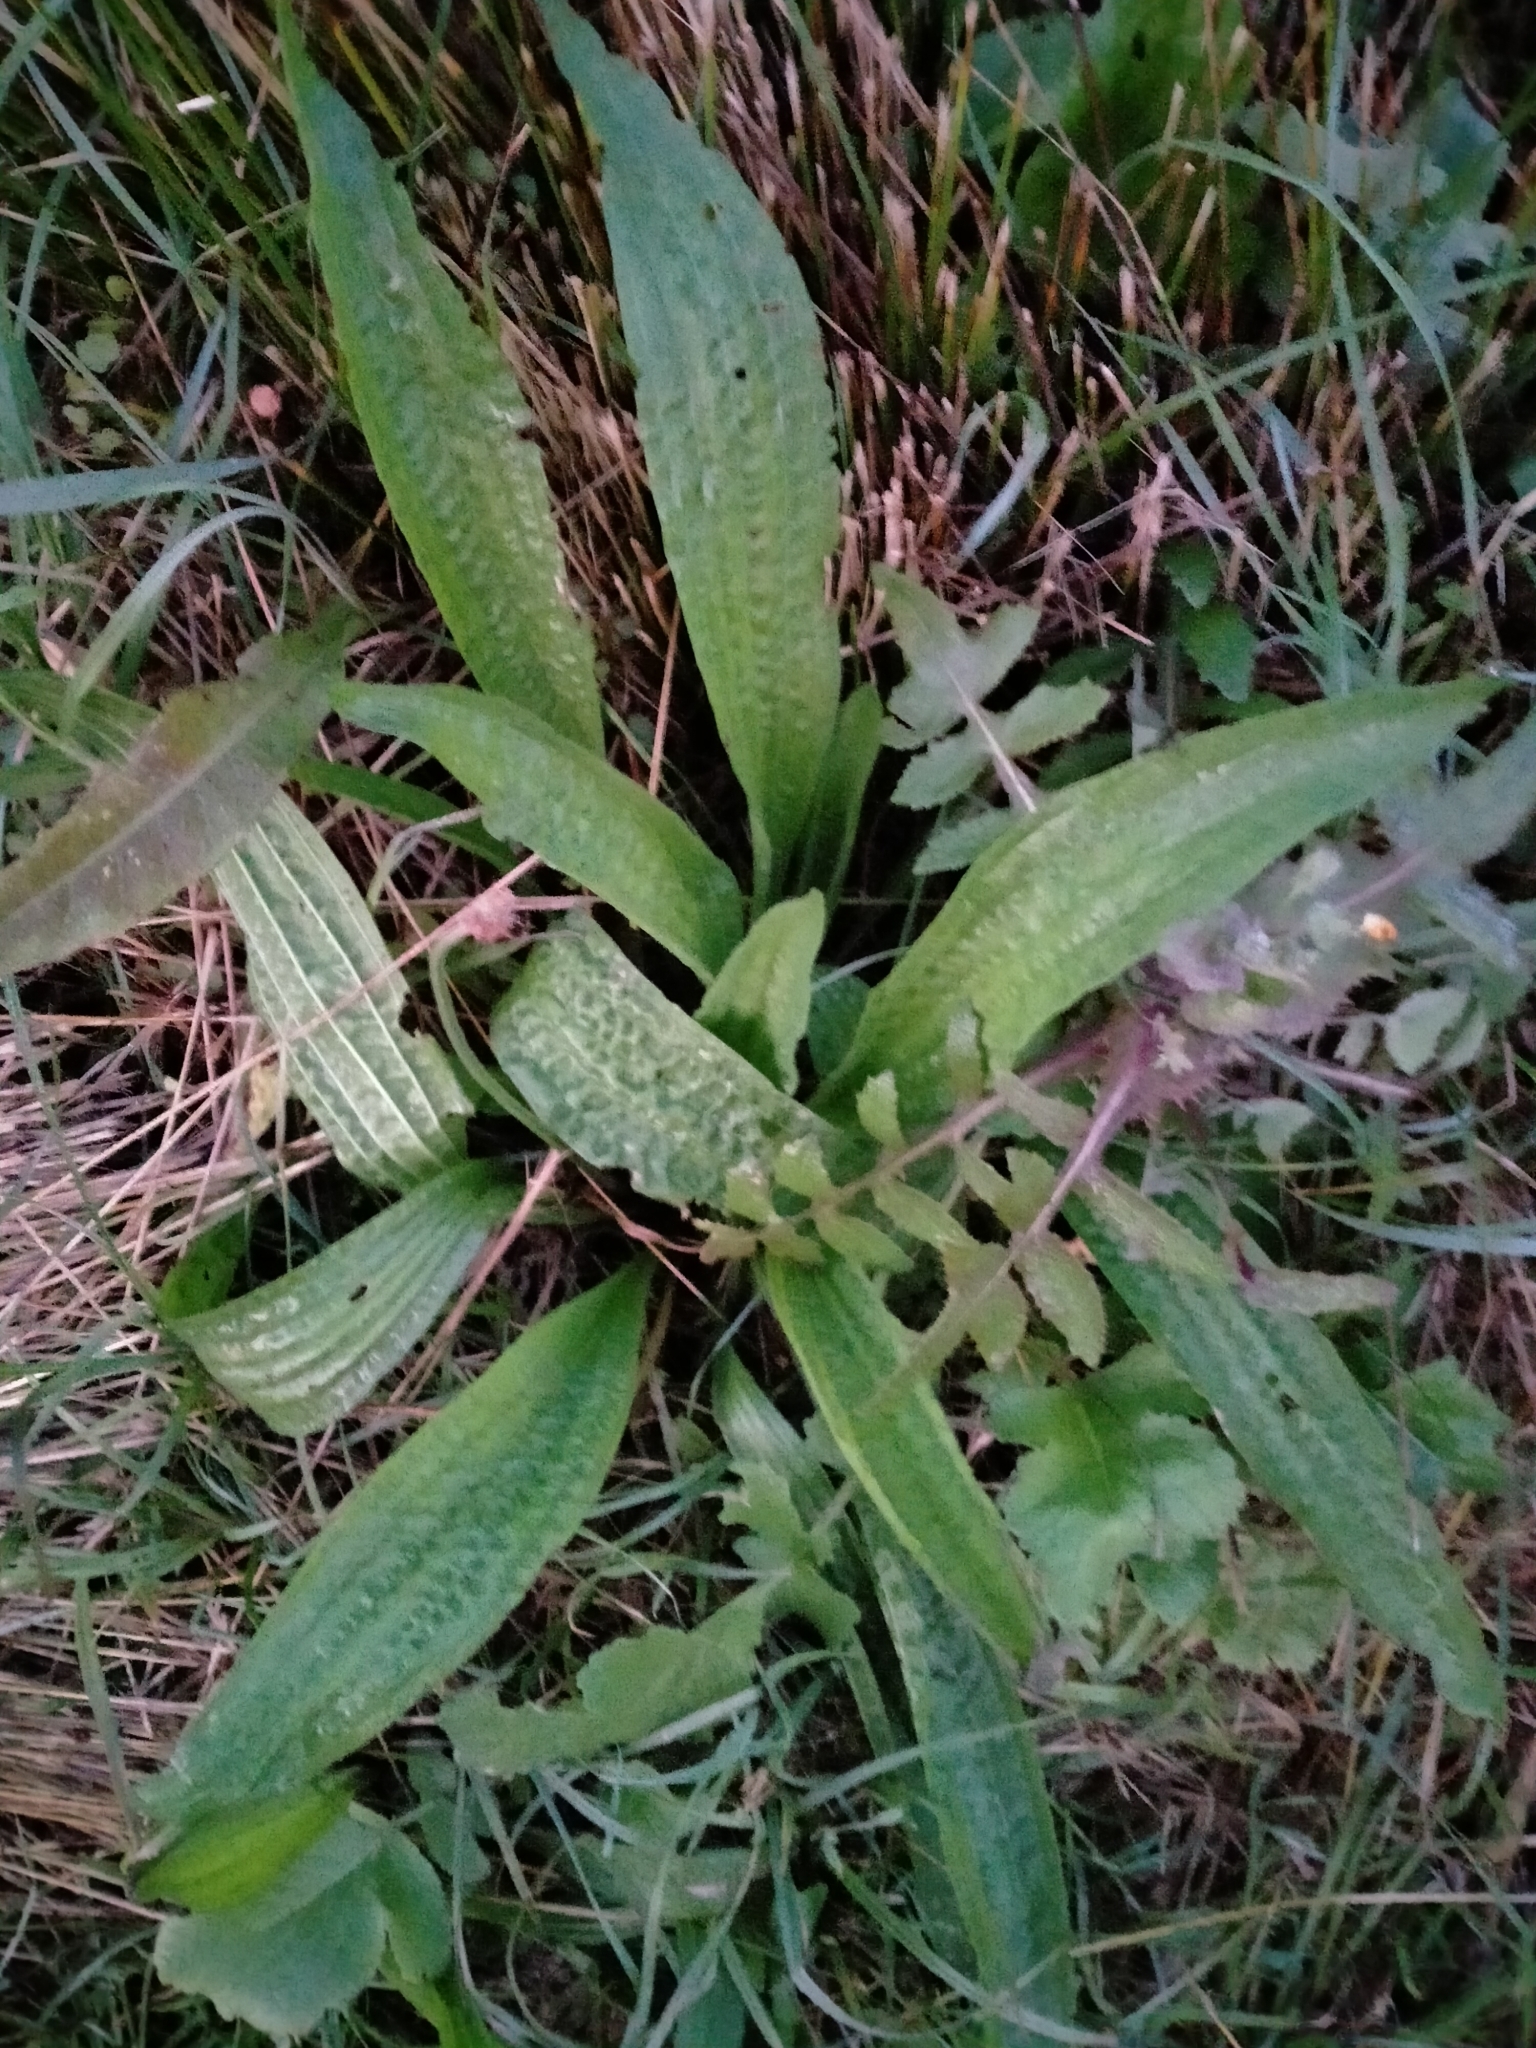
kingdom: Plantae
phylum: Tracheophyta
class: Magnoliopsida
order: Lamiales
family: Plantaginaceae
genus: Plantago
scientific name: Plantago lanceolata
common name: Ribwort plantain
